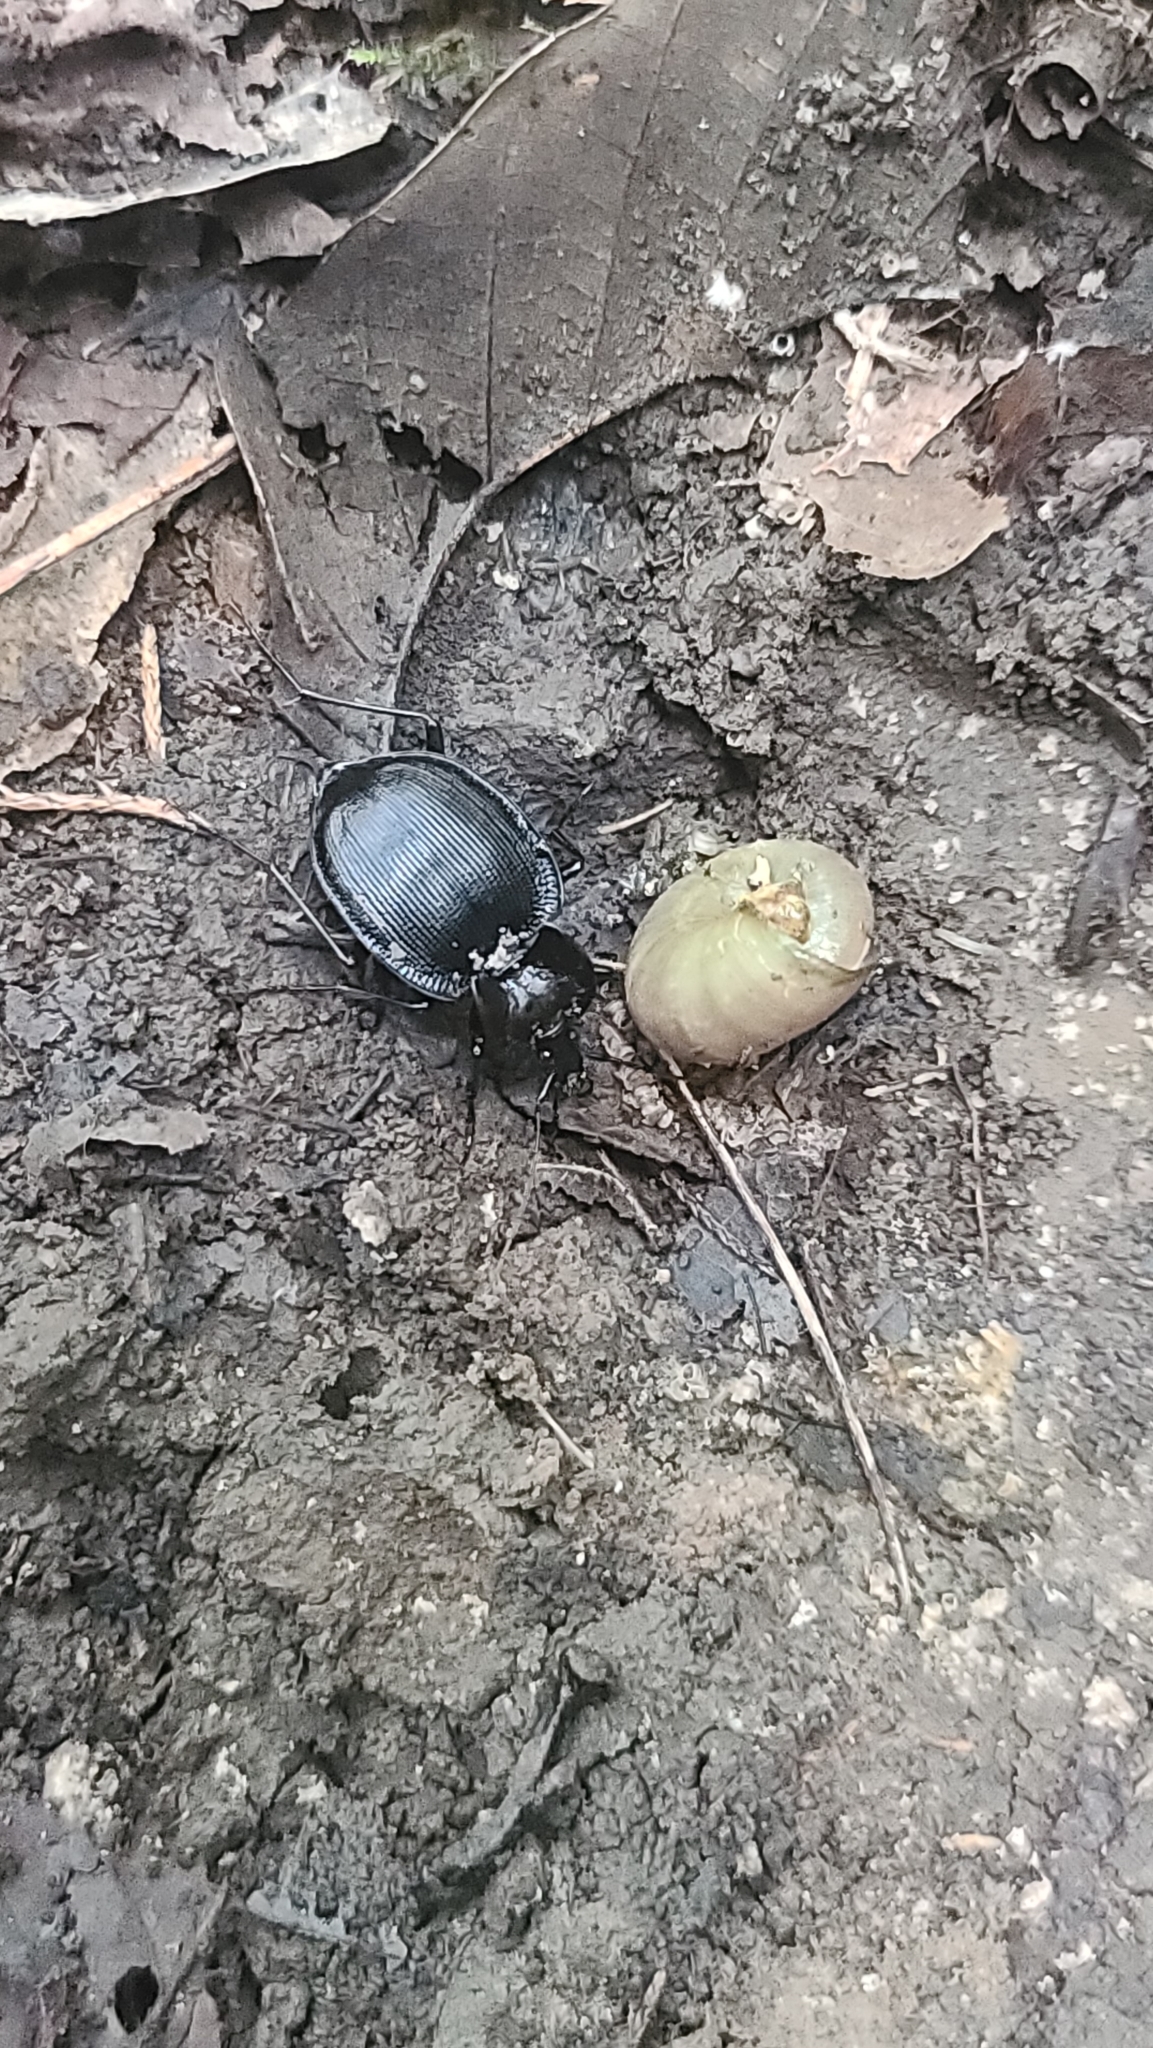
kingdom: Animalia
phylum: Arthropoda
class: Insecta
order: Coleoptera
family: Carabidae
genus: Scaphinotus
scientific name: Scaphinotus unicolor
